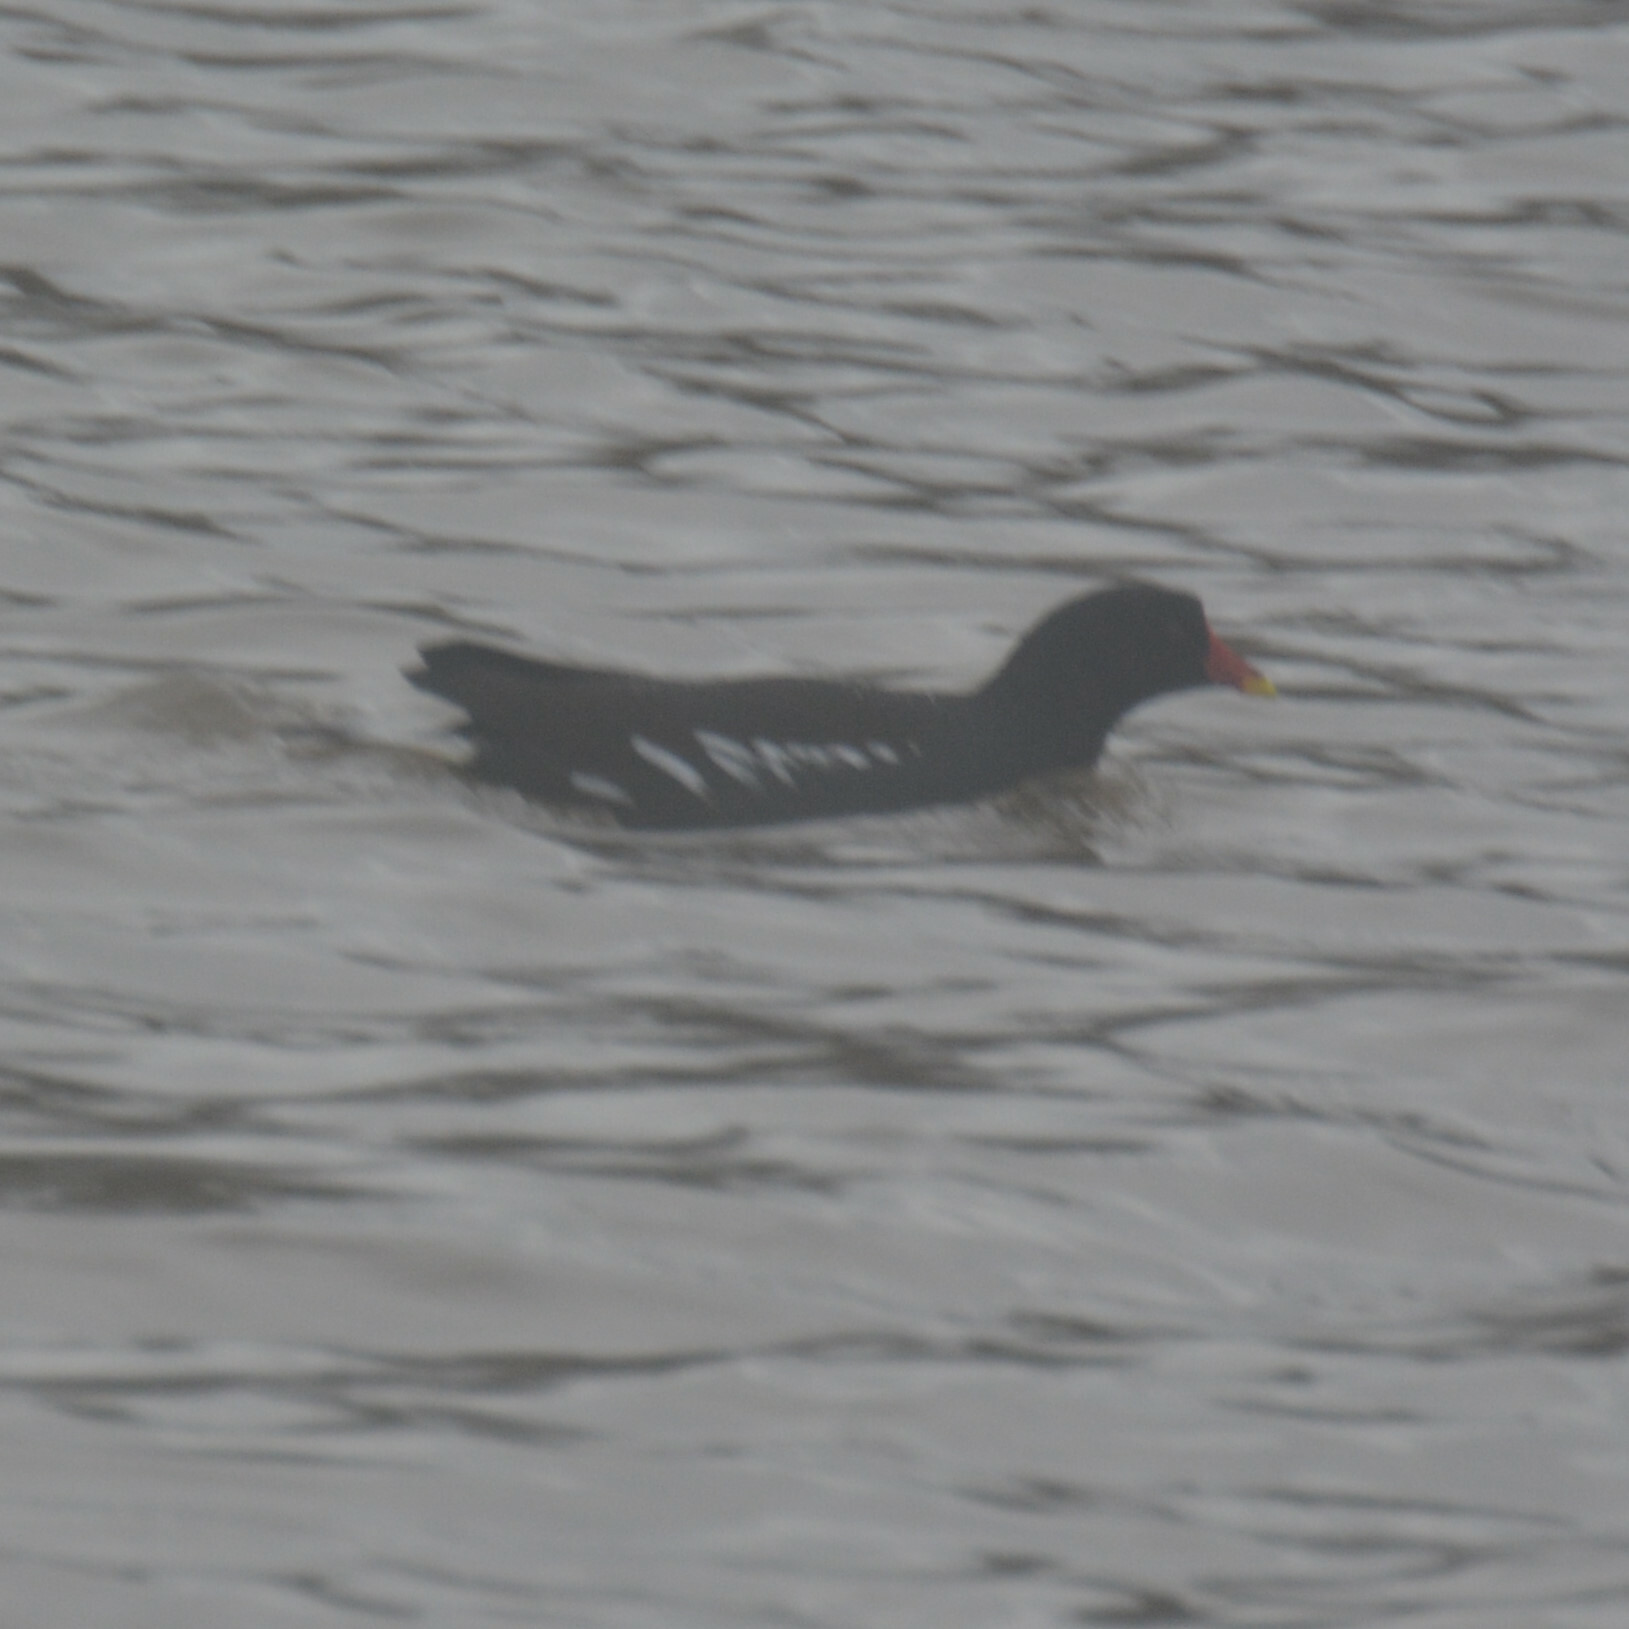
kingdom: Animalia
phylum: Chordata
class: Aves
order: Gruiformes
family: Rallidae
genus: Gallinula
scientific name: Gallinula chloropus
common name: Common moorhen
